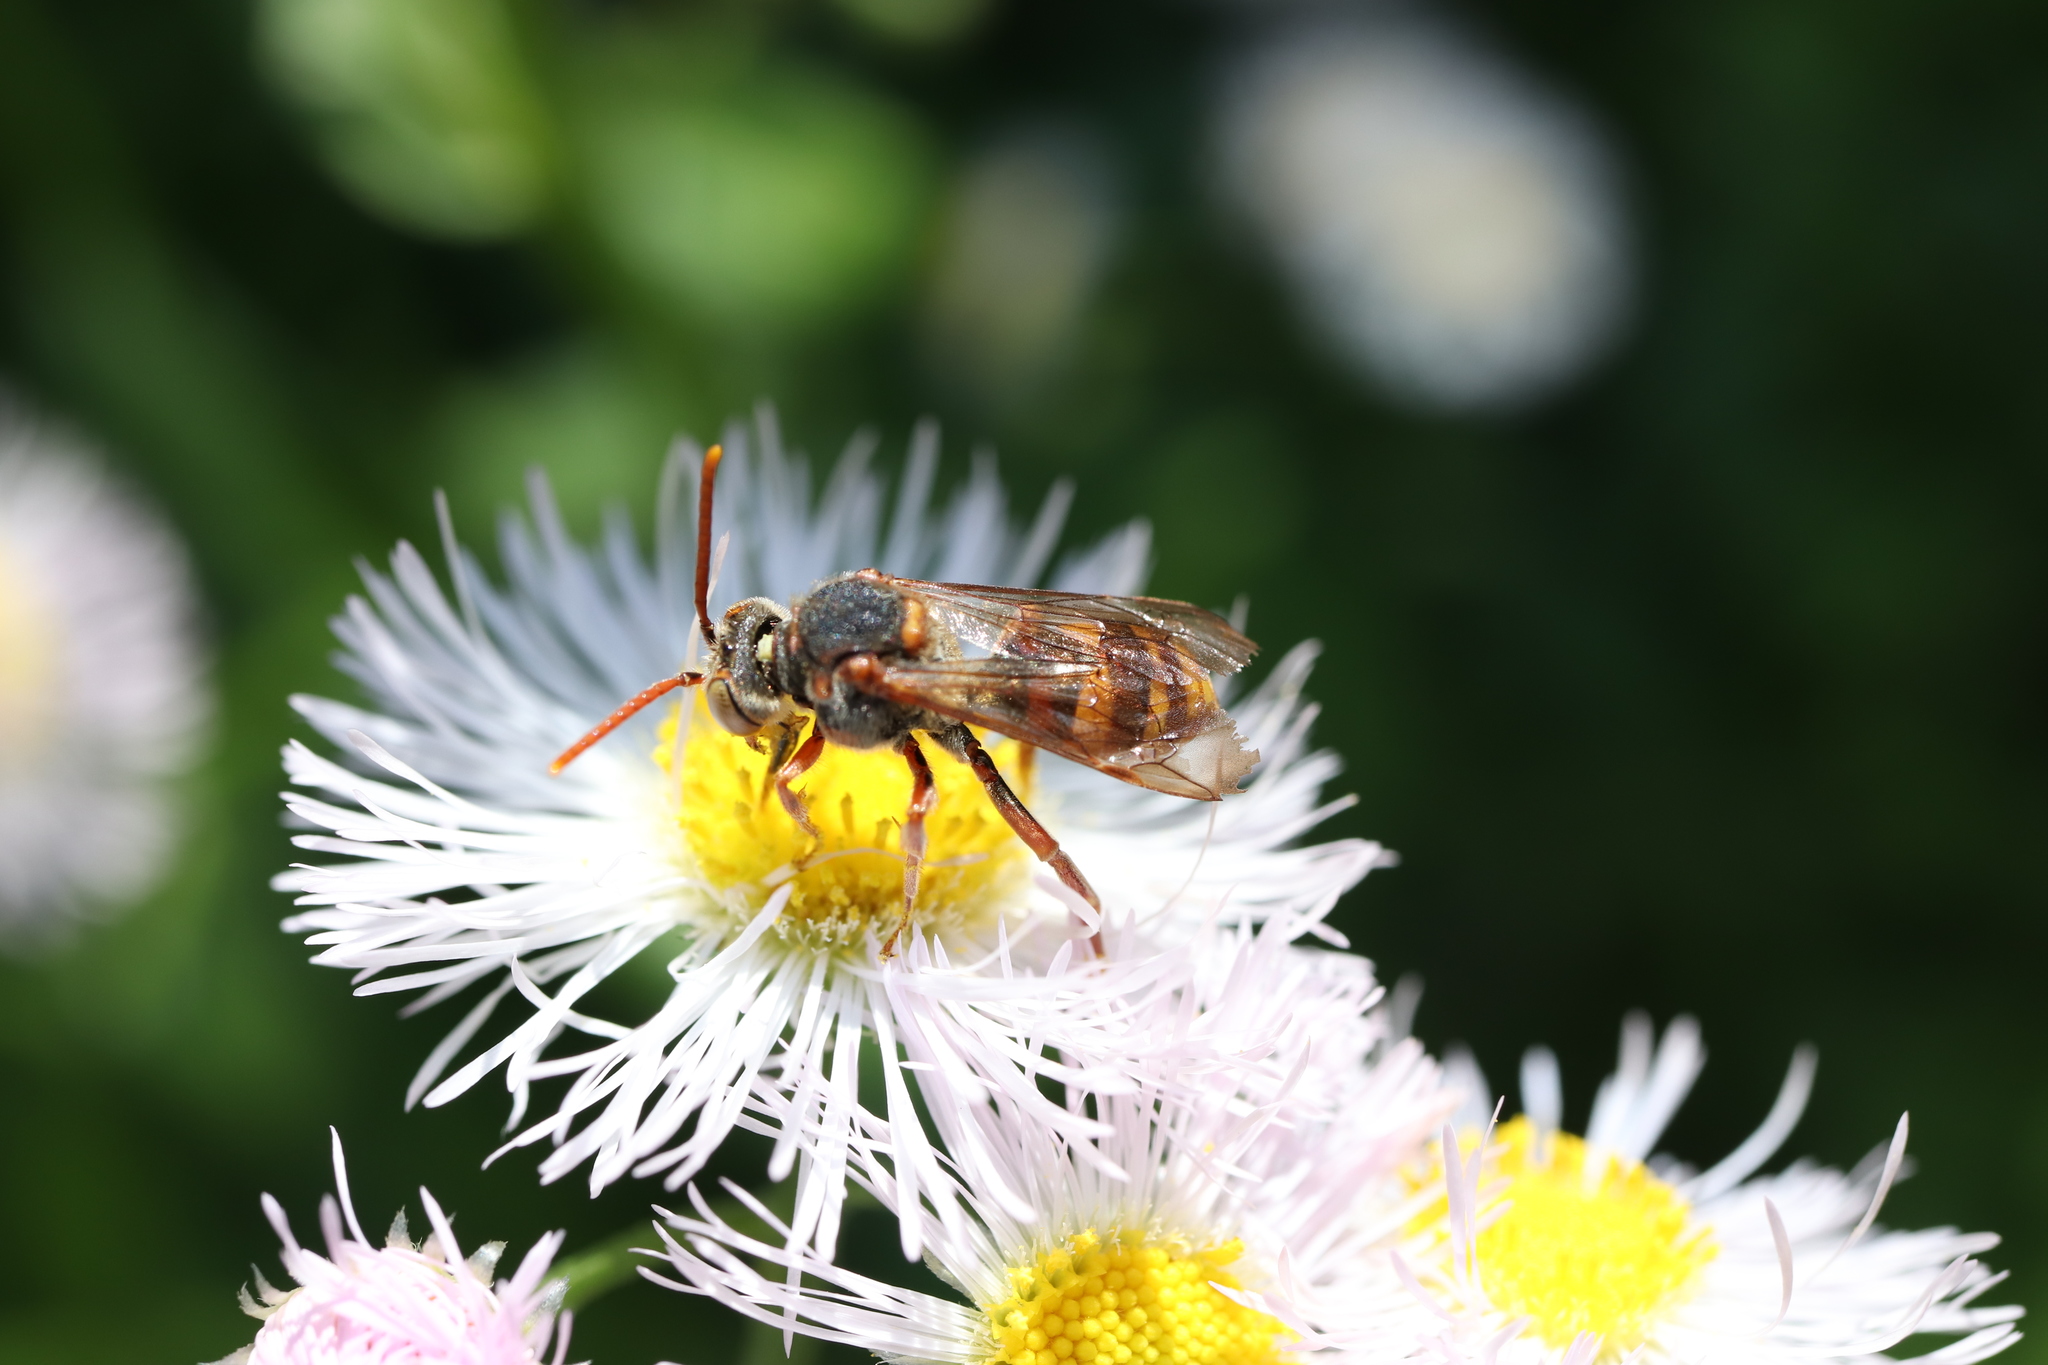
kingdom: Animalia
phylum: Arthropoda
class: Insecta
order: Hymenoptera
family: Apidae
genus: Nomada
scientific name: Nomada japonica
